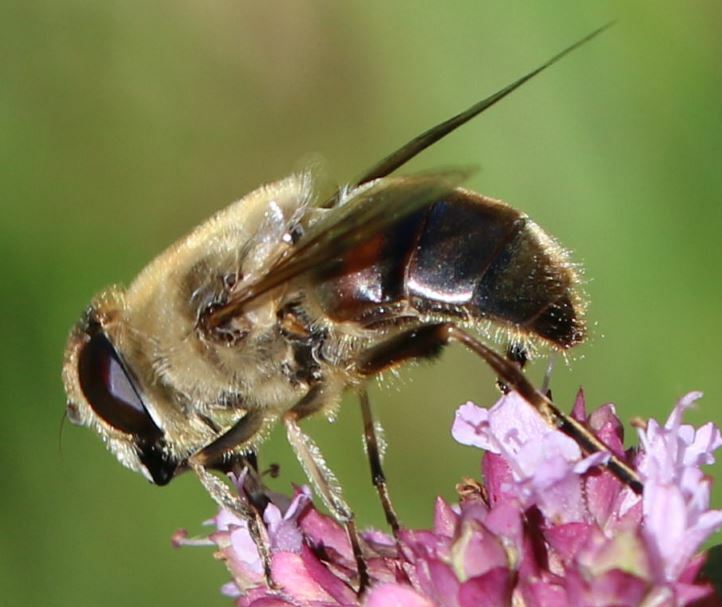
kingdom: Animalia
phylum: Arthropoda
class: Insecta
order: Diptera
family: Syrphidae
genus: Eristalis
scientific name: Eristalis tenax
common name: Drone fly
